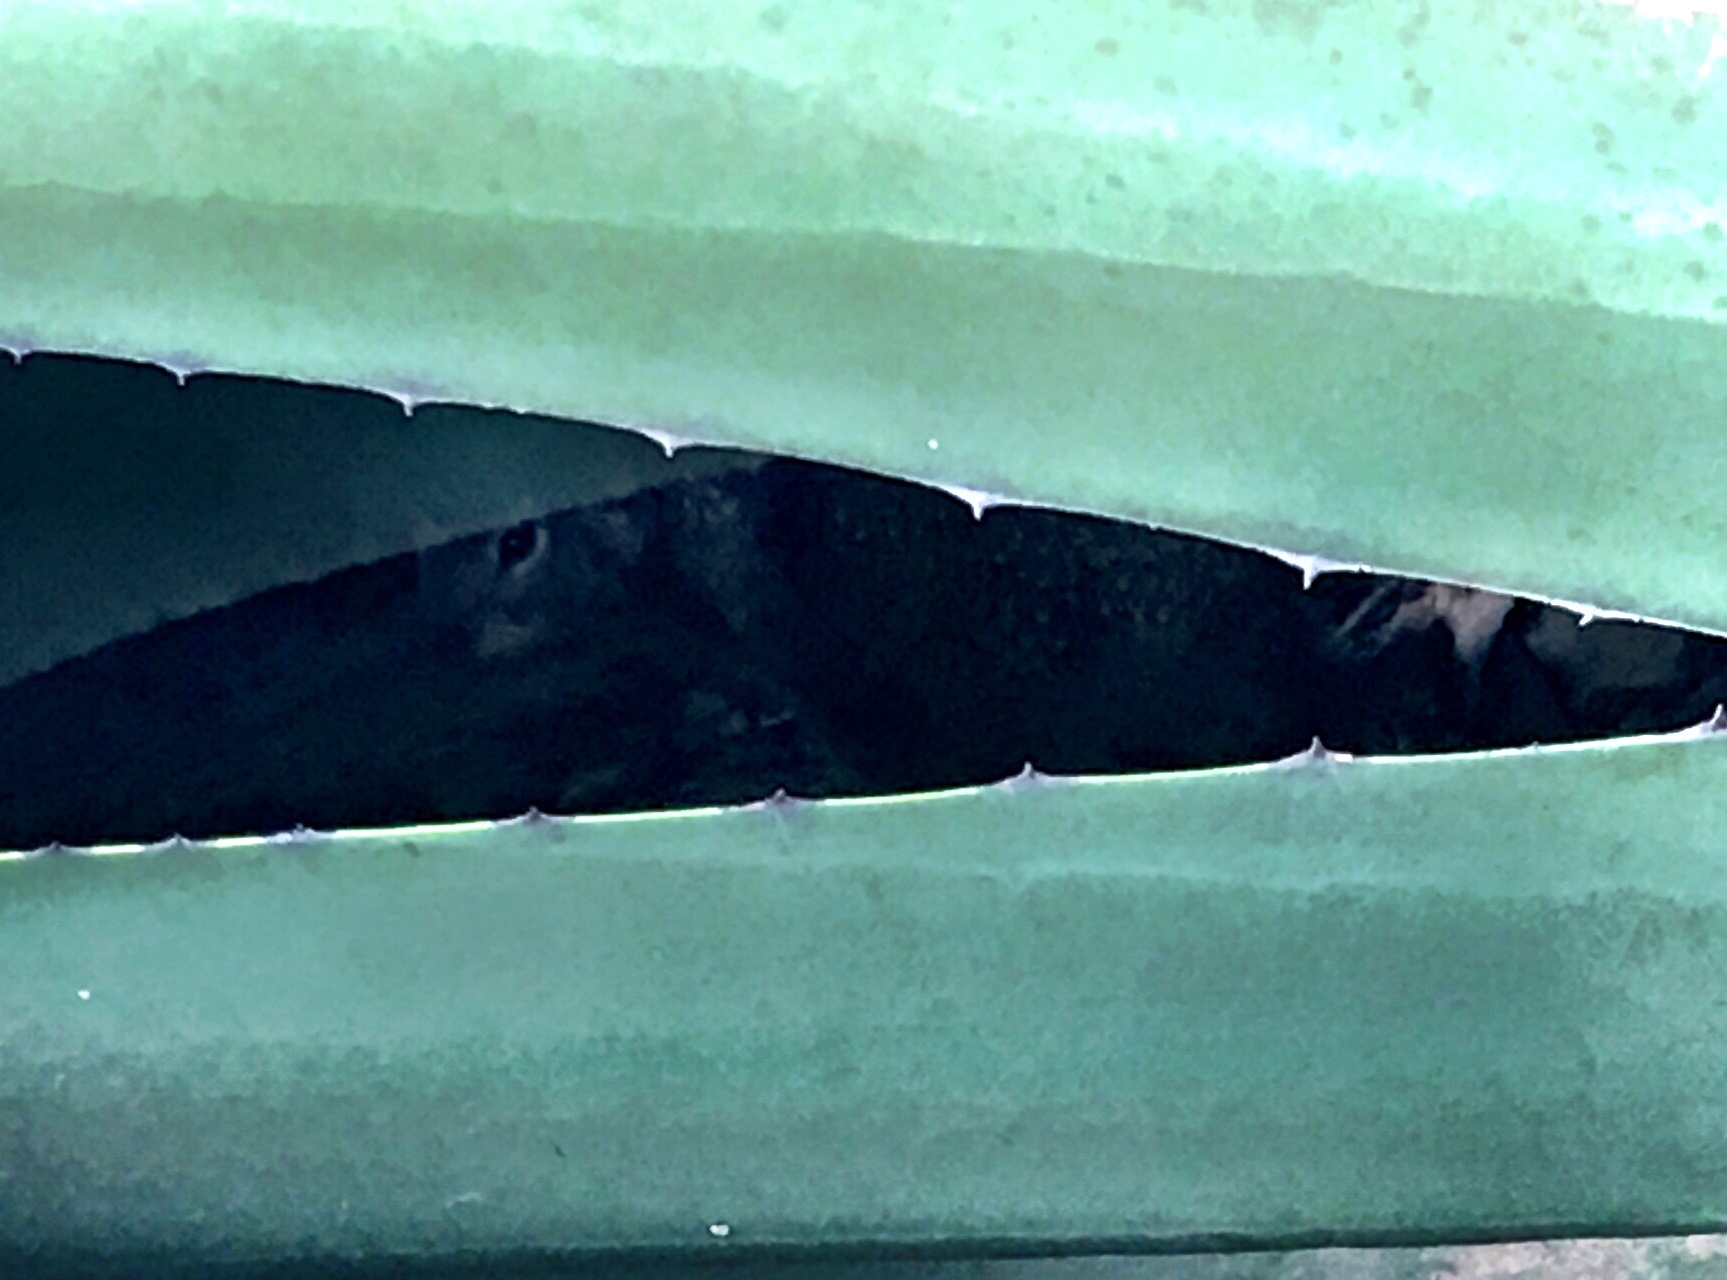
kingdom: Animalia
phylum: Chordata
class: Mammalia
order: Rodentia
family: Sciuridae
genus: Otospermophilus
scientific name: Otospermophilus beecheyi
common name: California ground squirrel
